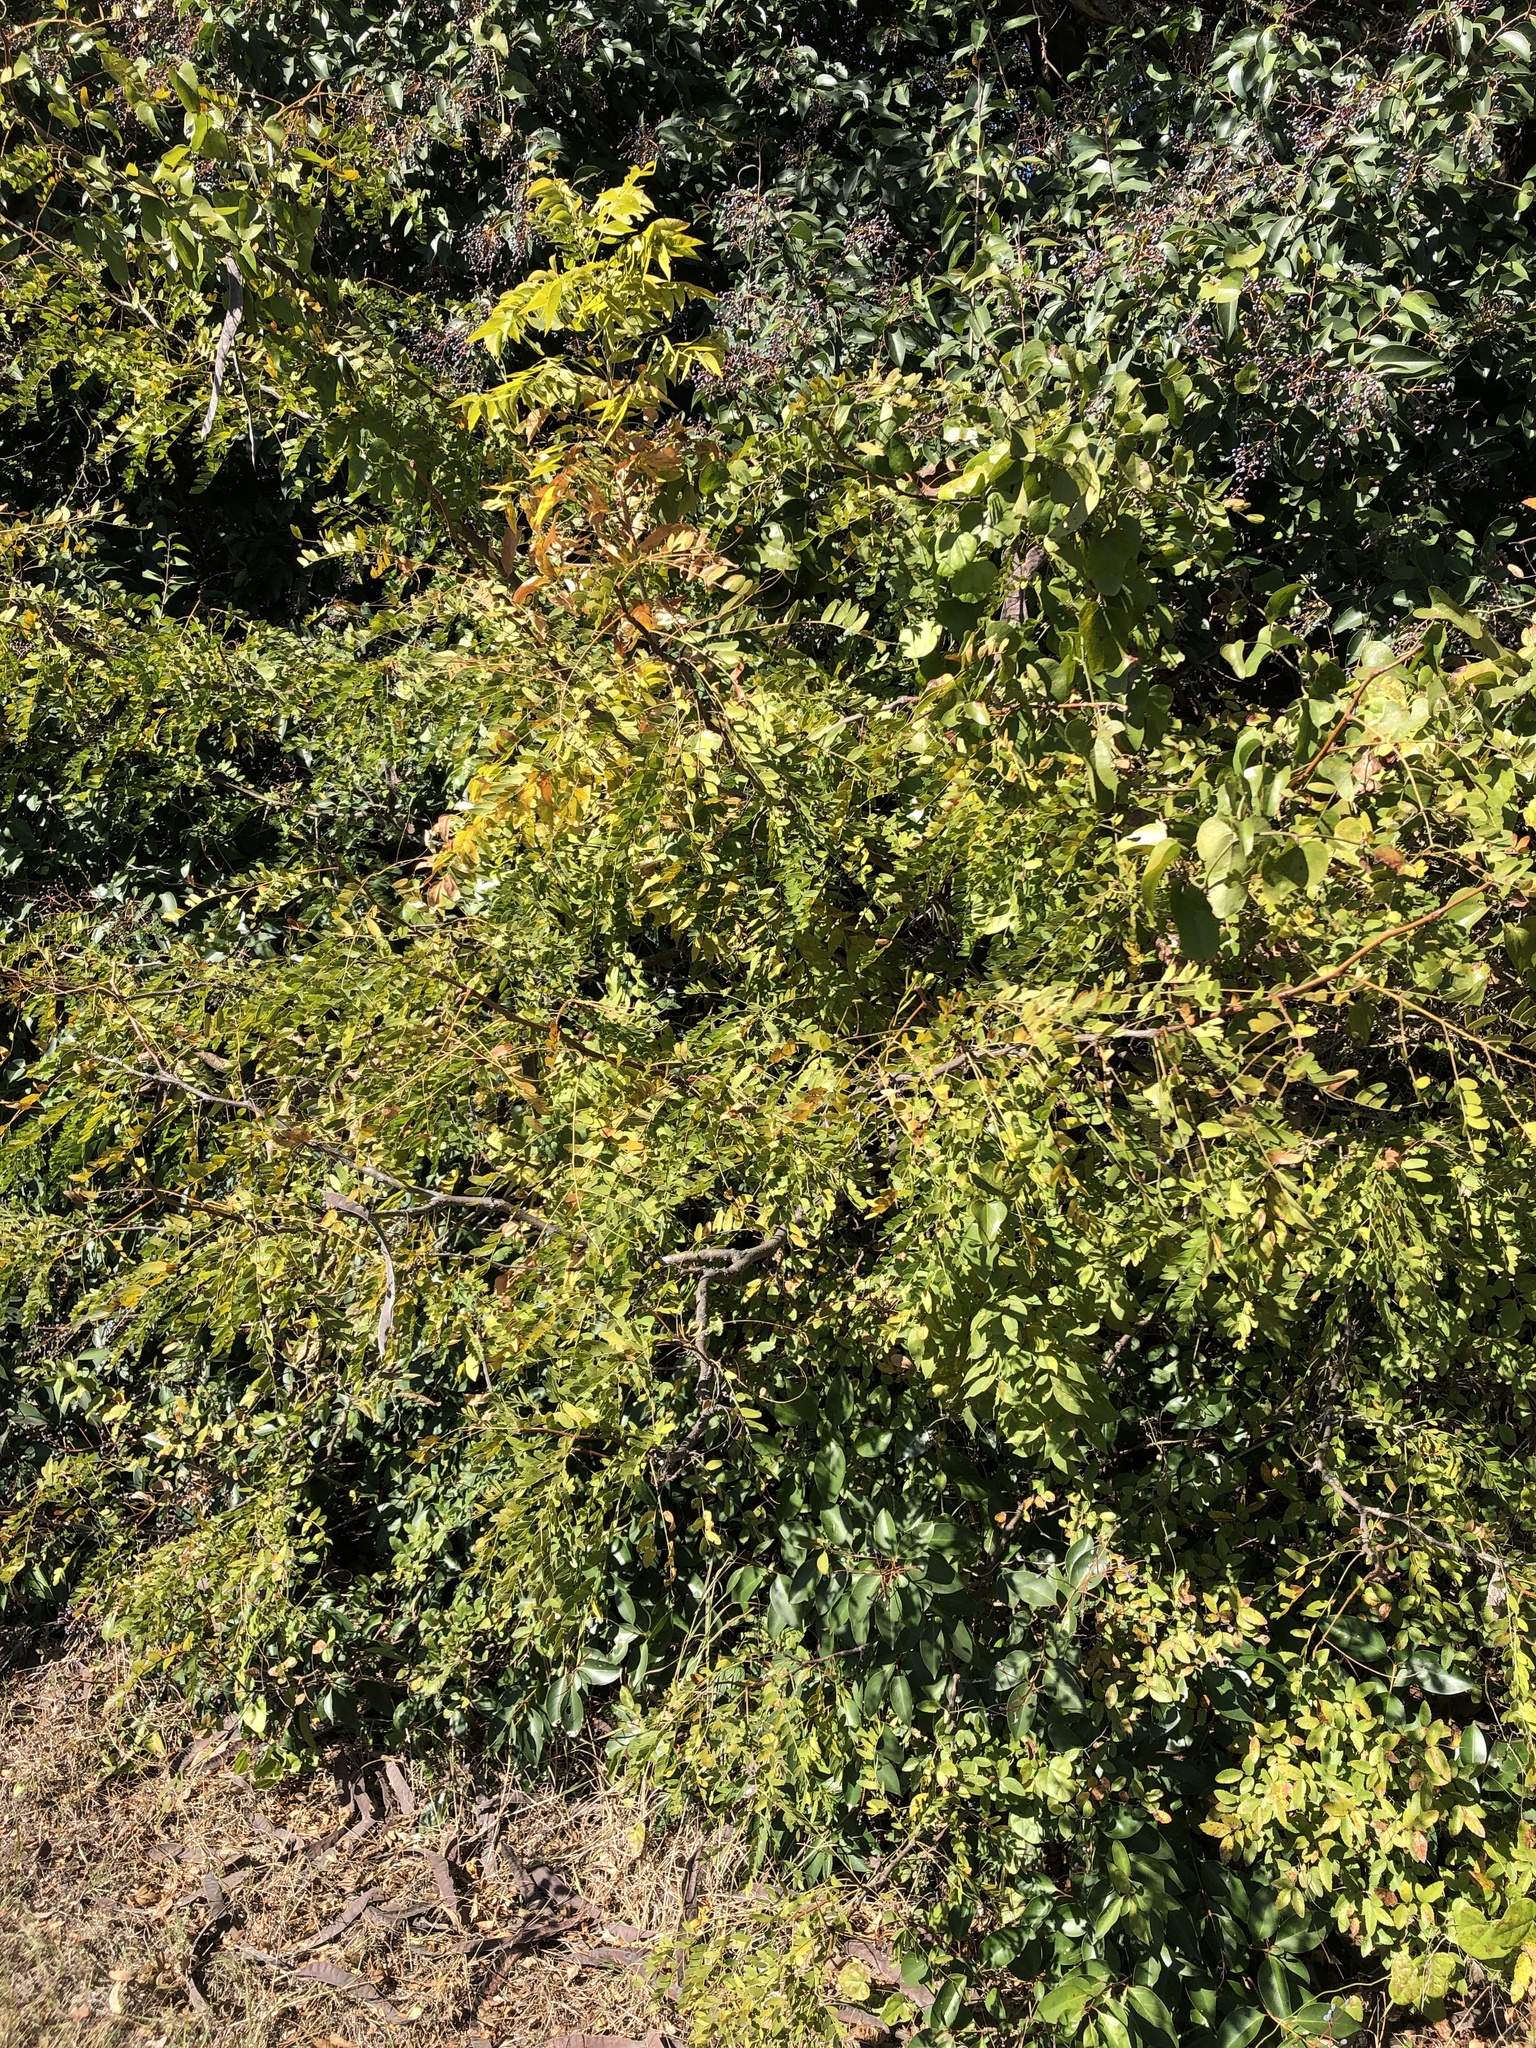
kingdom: Plantae
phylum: Tracheophyta
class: Magnoliopsida
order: Fabales
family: Fabaceae
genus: Gleditsia
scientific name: Gleditsia triacanthos
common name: Common honeylocust
